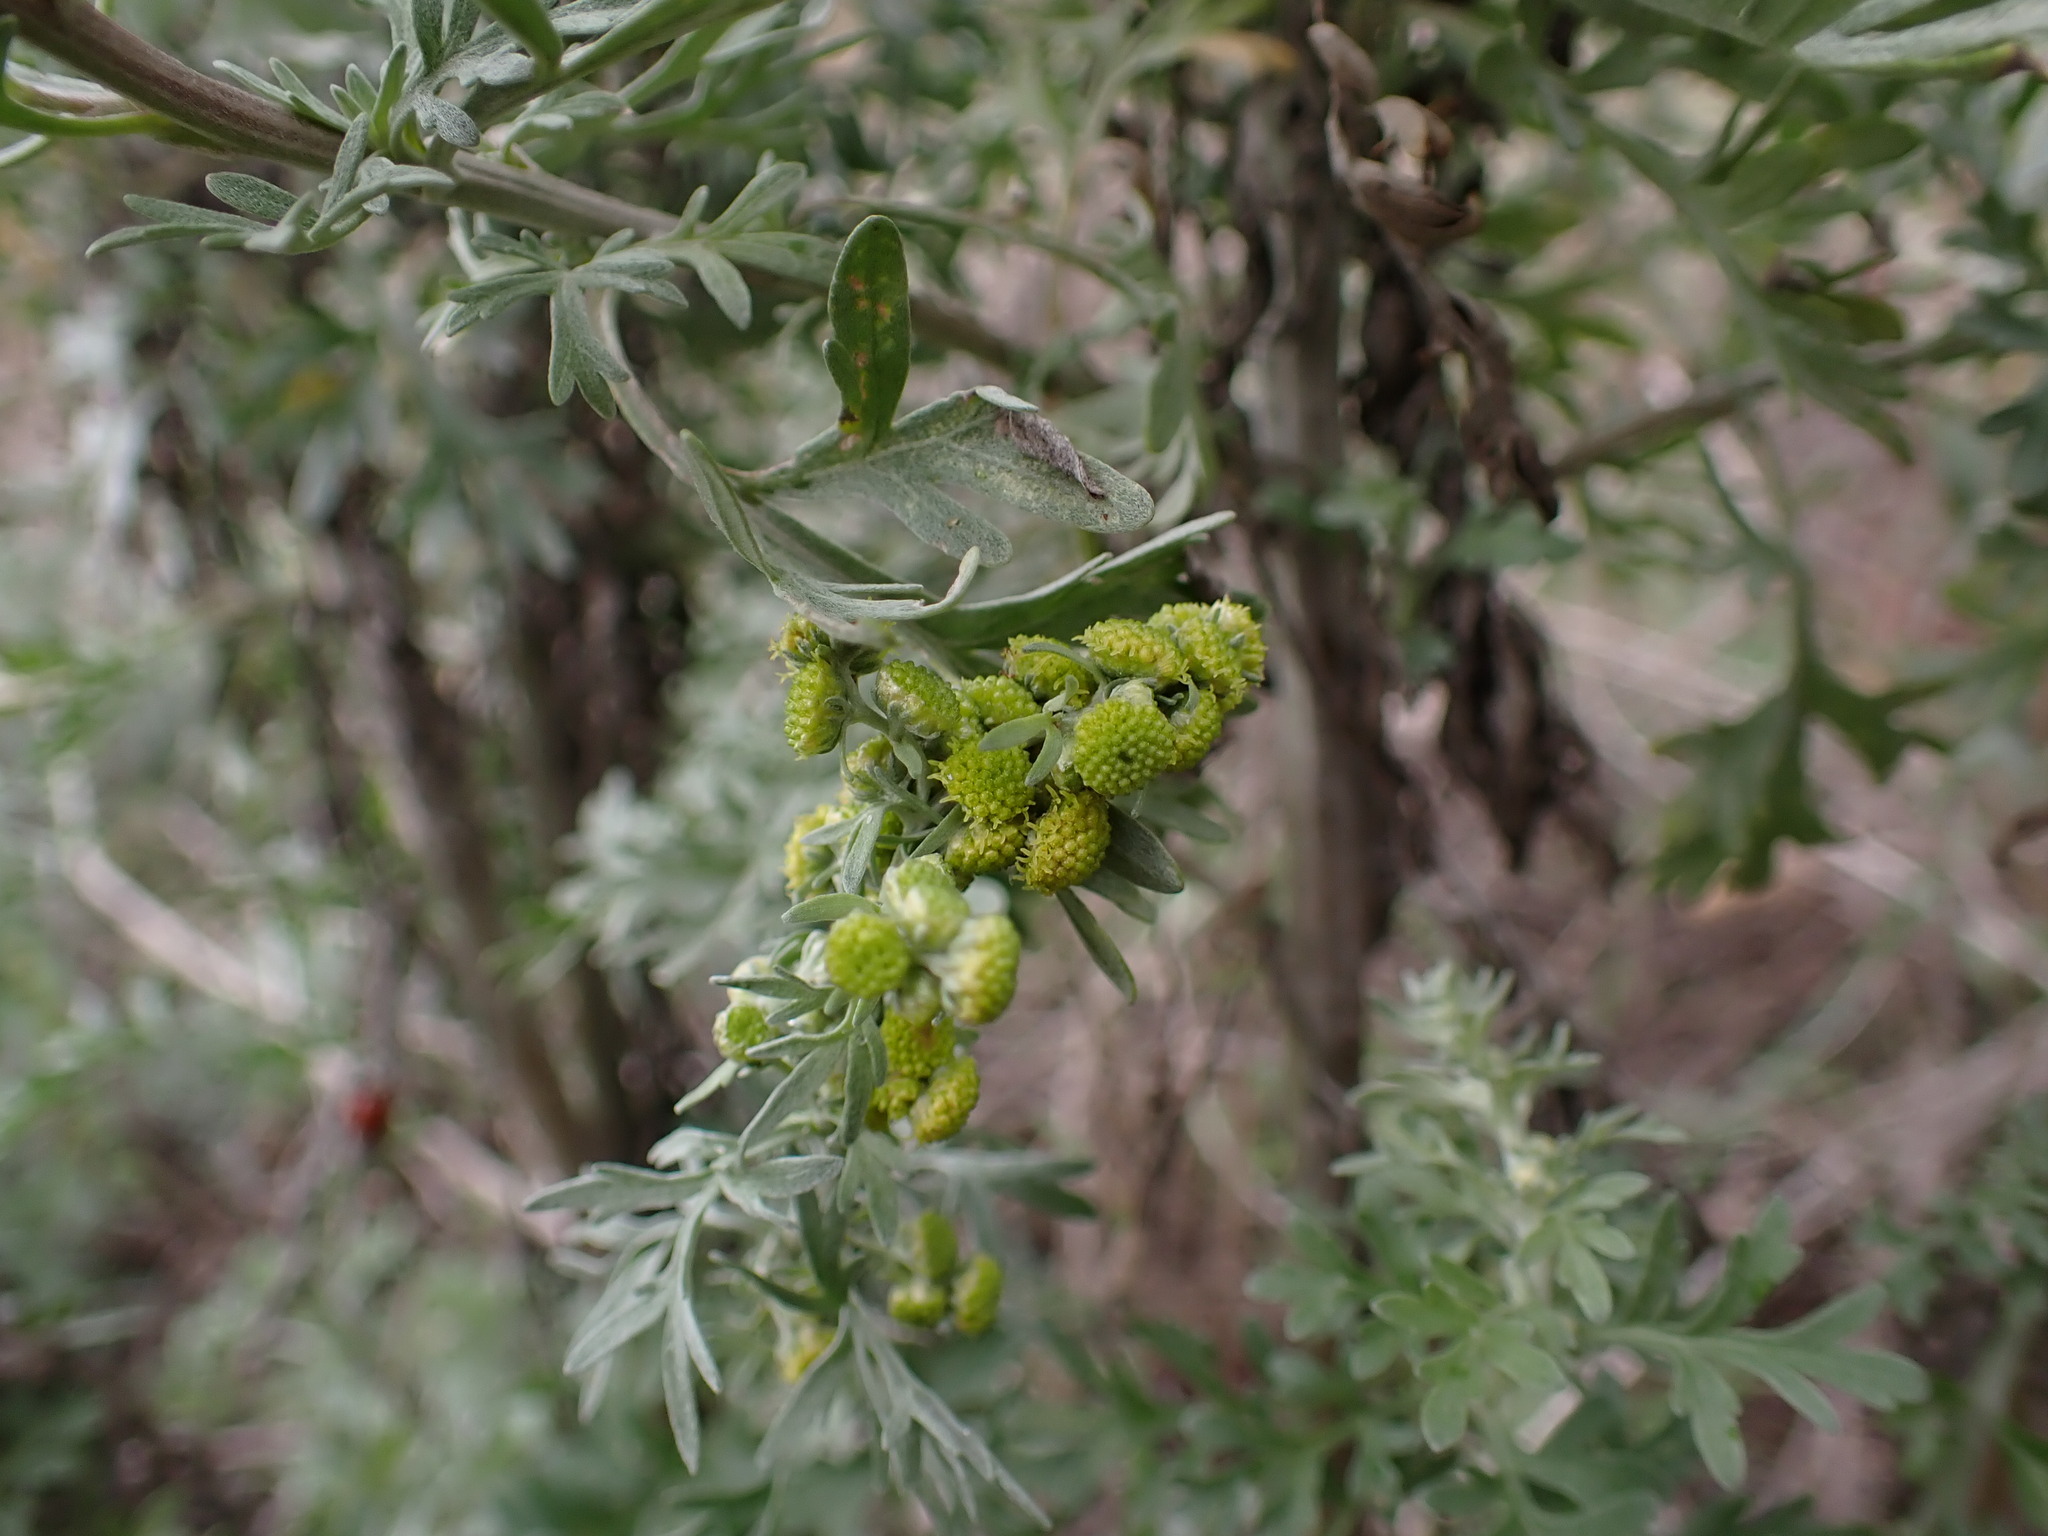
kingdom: Plantae
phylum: Tracheophyta
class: Magnoliopsida
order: Asterales
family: Asteraceae
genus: Artemisia
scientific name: Artemisia absinthium
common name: Wormwood
